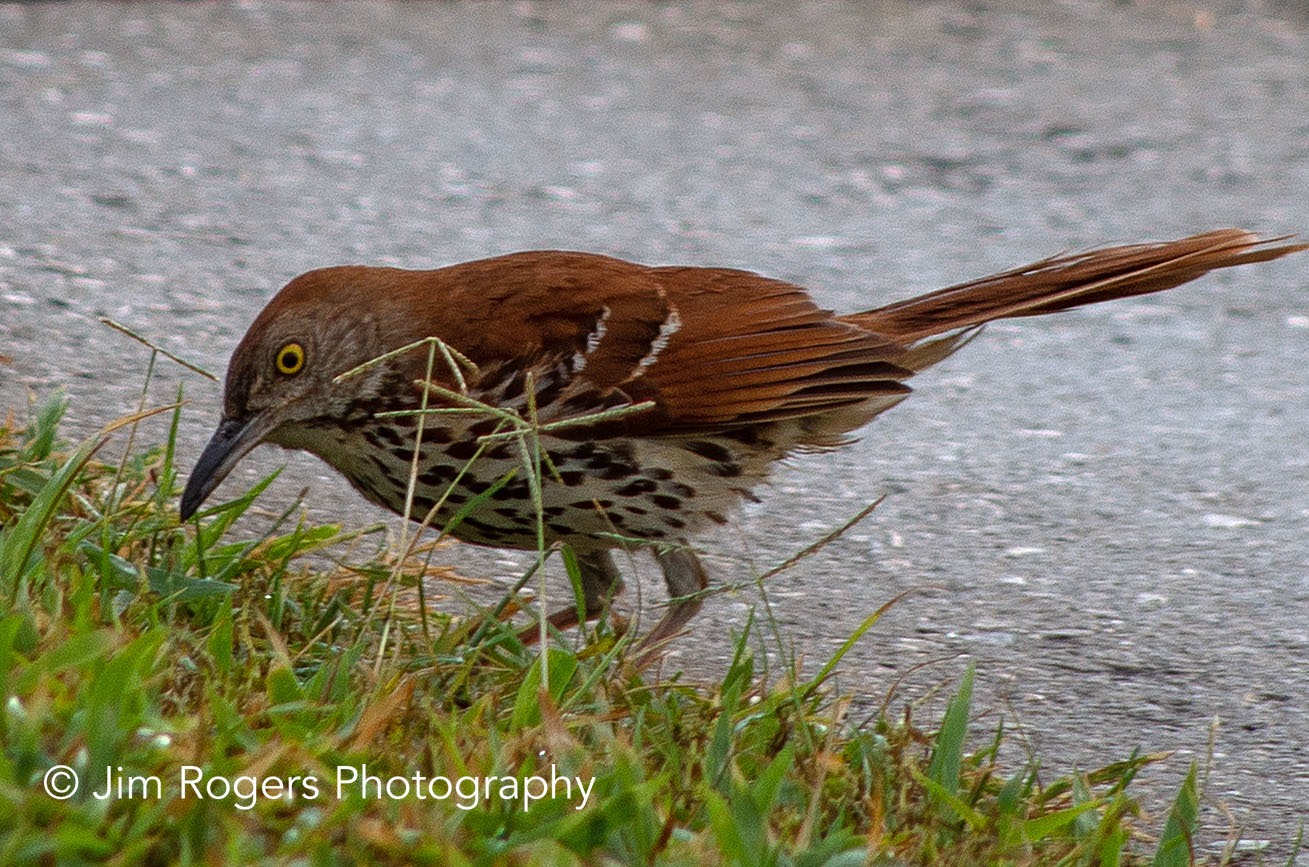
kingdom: Animalia
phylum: Chordata
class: Aves
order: Passeriformes
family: Mimidae
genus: Toxostoma
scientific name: Toxostoma rufum
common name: Brown thrasher
